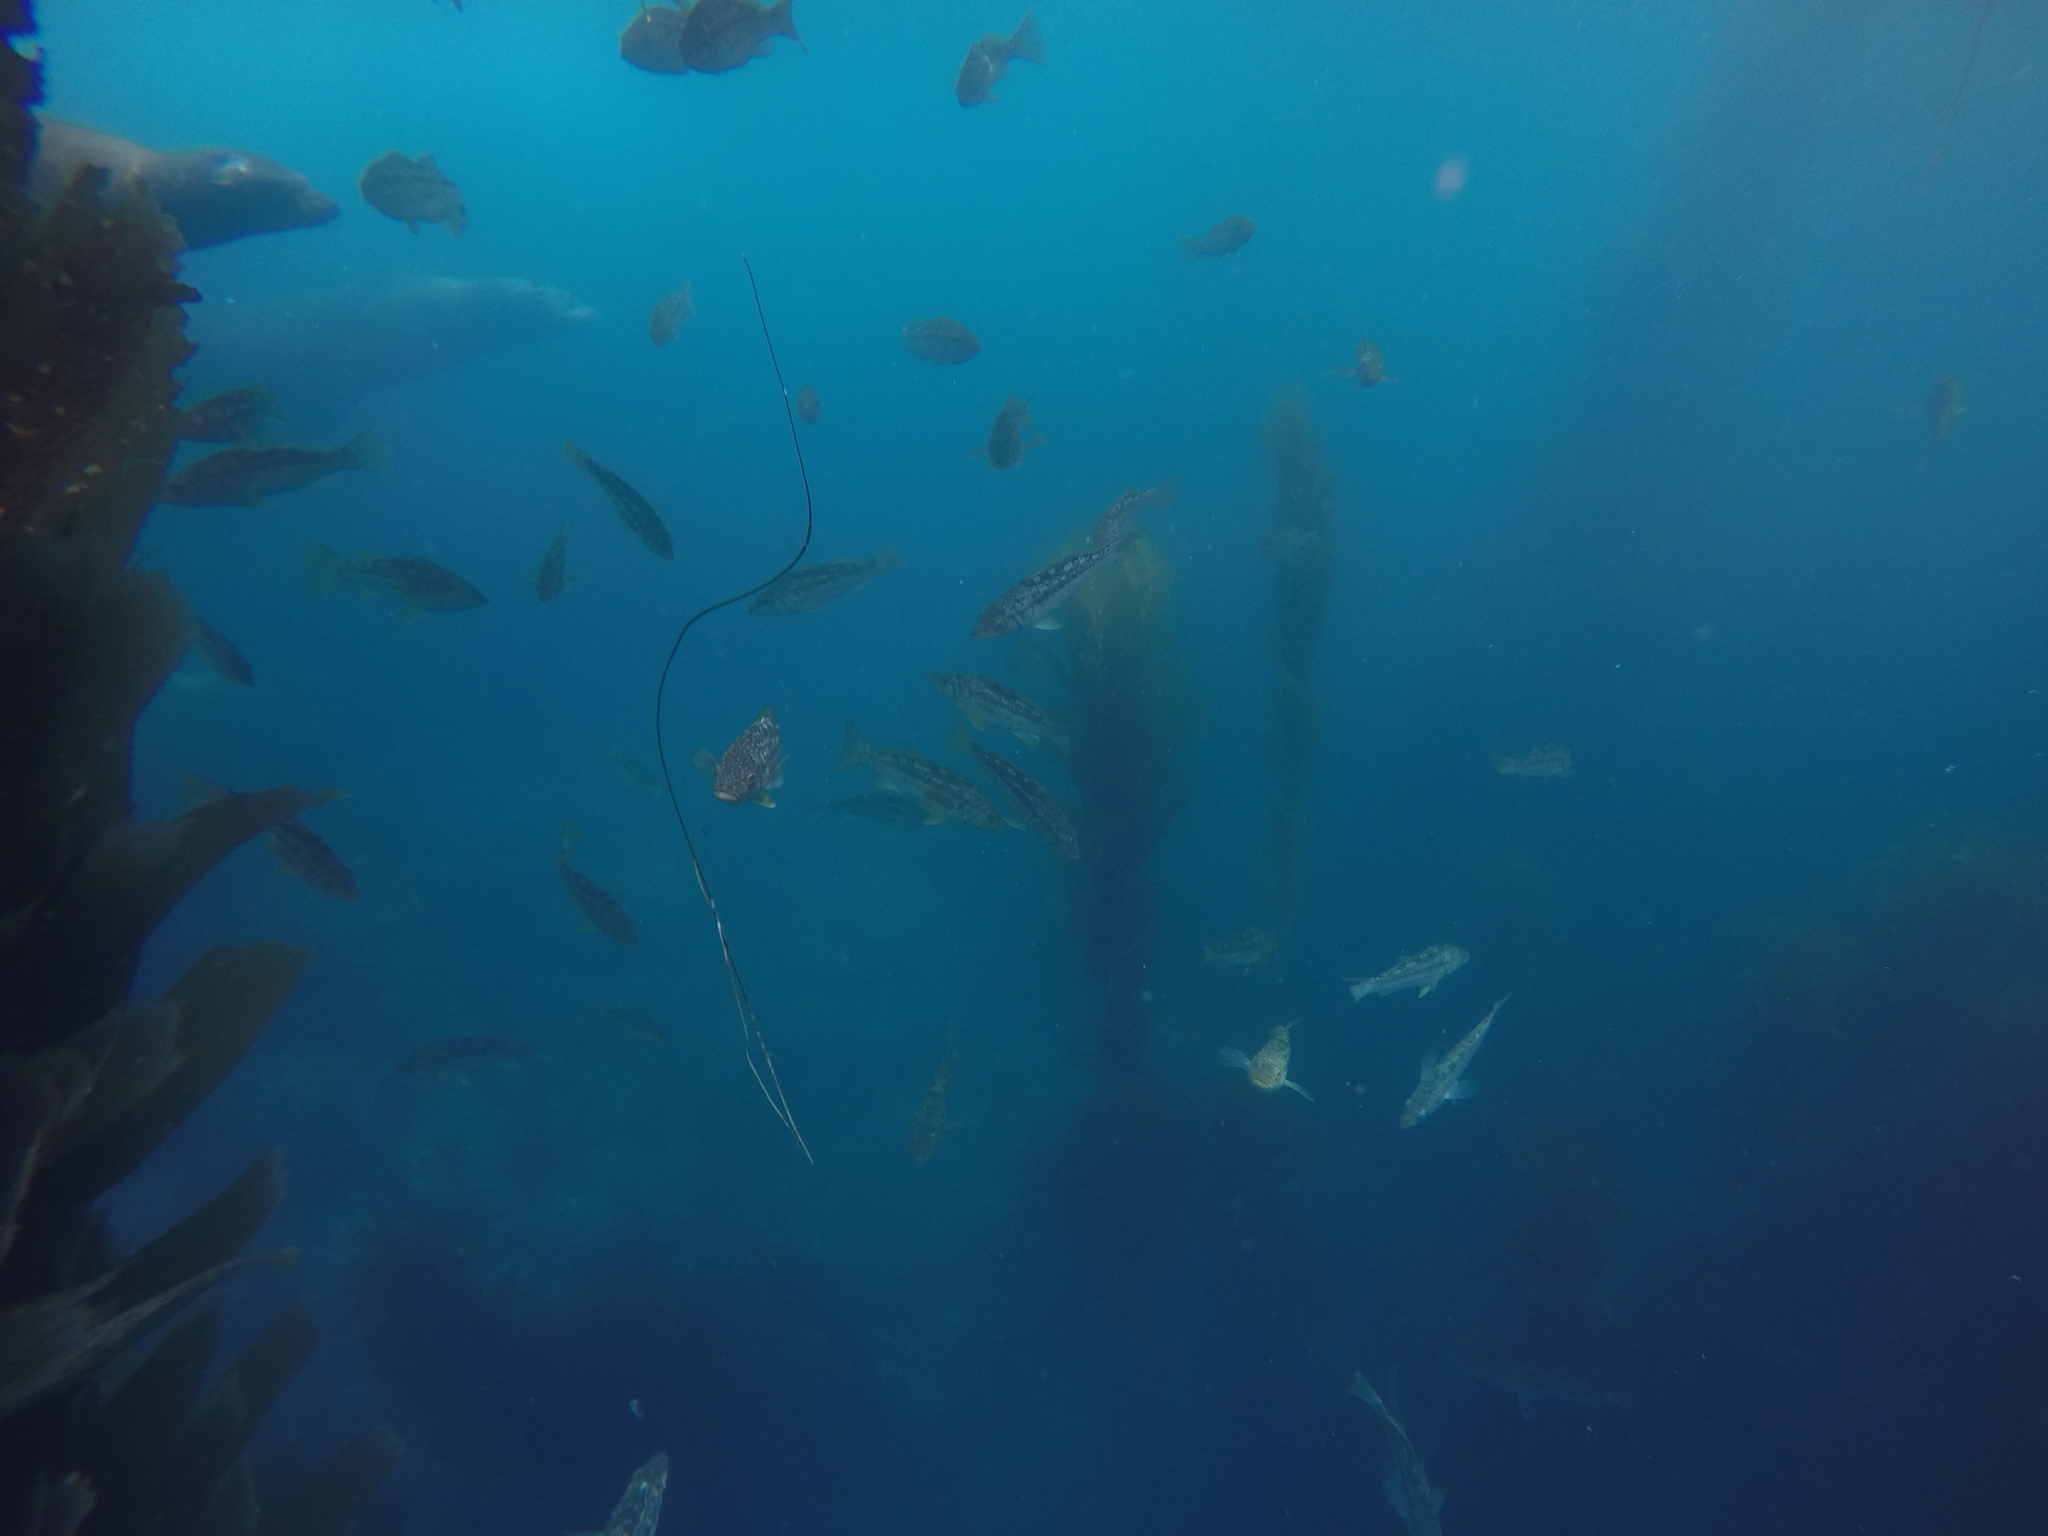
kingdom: Animalia
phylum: Chordata
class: Mammalia
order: Carnivora
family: Otariidae
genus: Zalophus
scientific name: Zalophus californianus
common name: California sea lion
